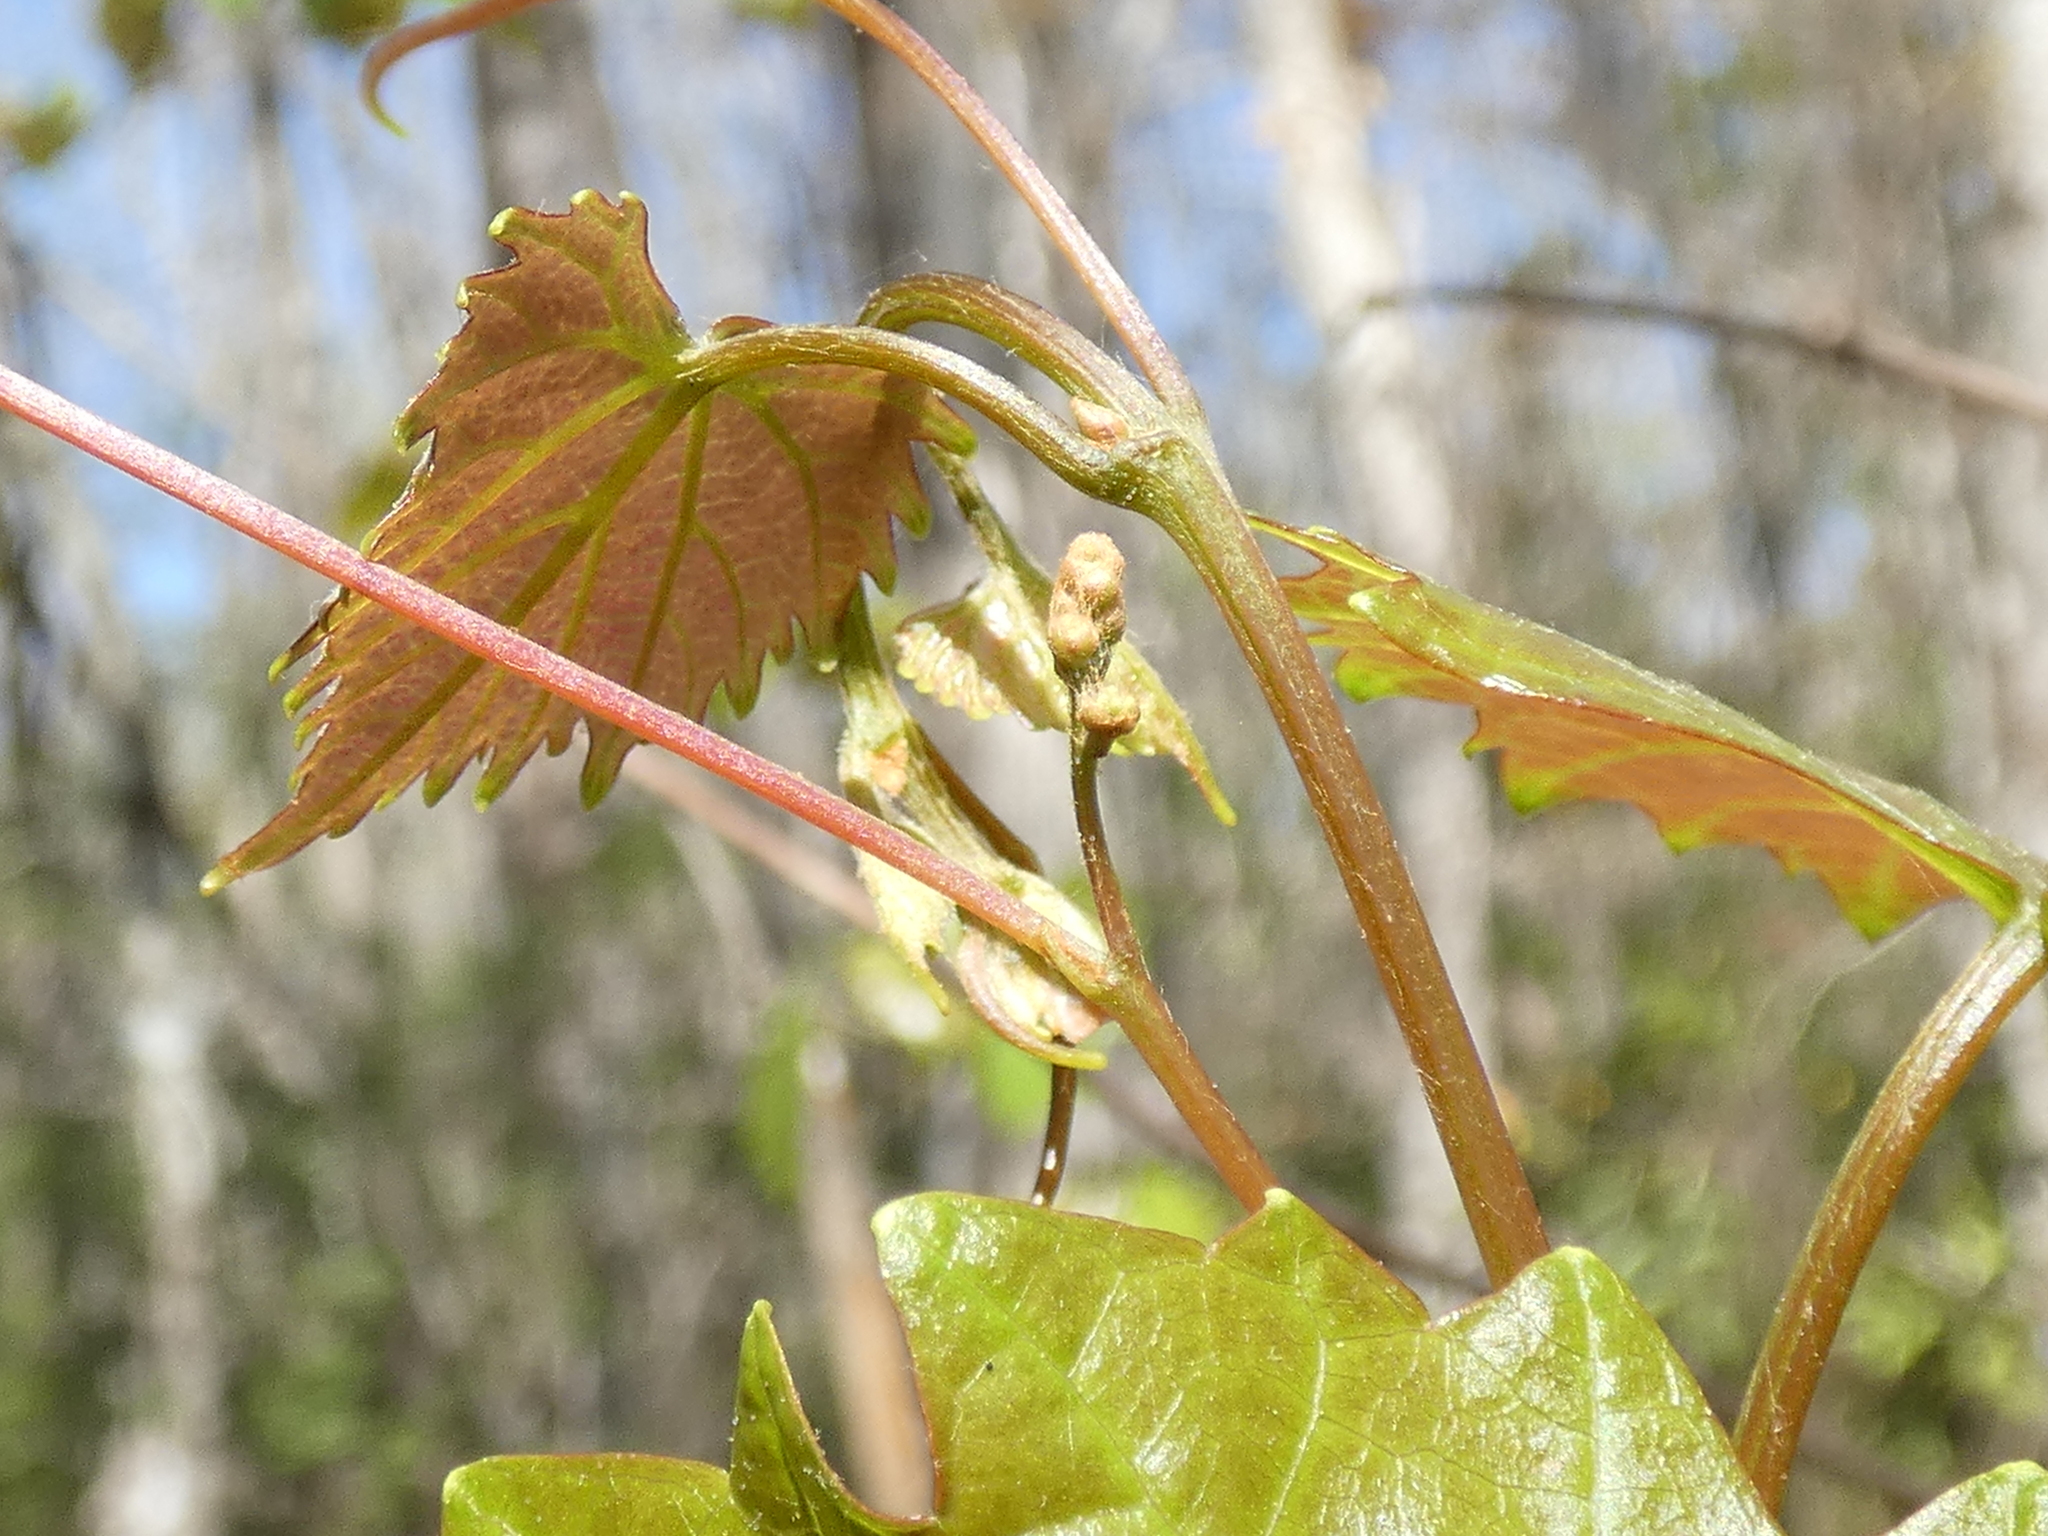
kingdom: Plantae
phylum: Tracheophyta
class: Magnoliopsida
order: Vitales
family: Vitaceae
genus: Vitis
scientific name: Vitis rotundifolia
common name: Muscadine grape
